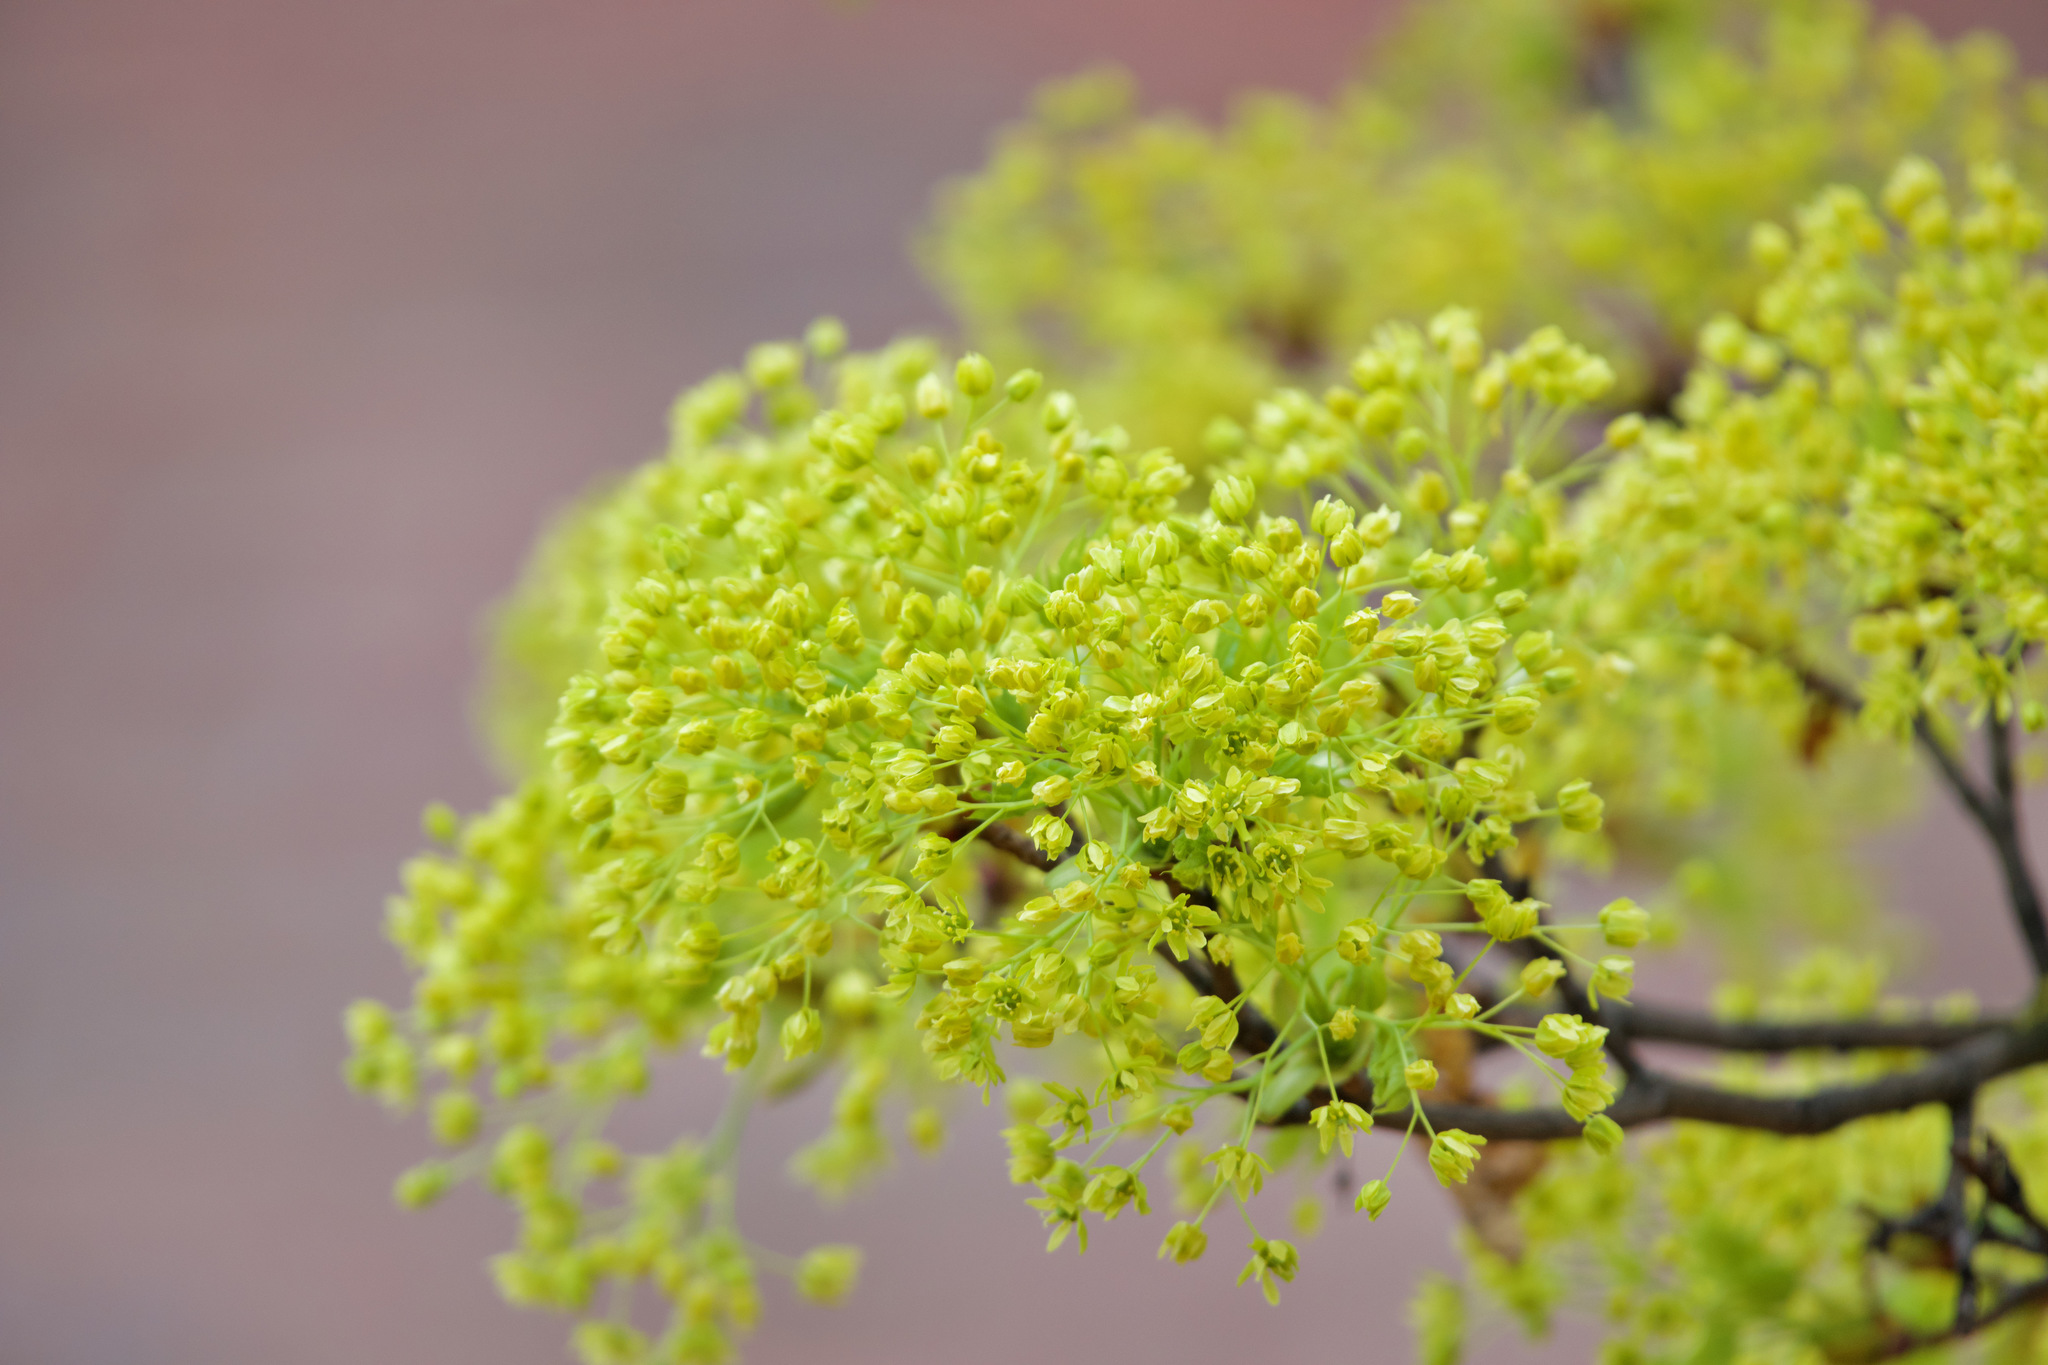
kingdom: Plantae
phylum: Tracheophyta
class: Magnoliopsida
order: Sapindales
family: Sapindaceae
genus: Acer
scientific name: Acer platanoides
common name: Norway maple
